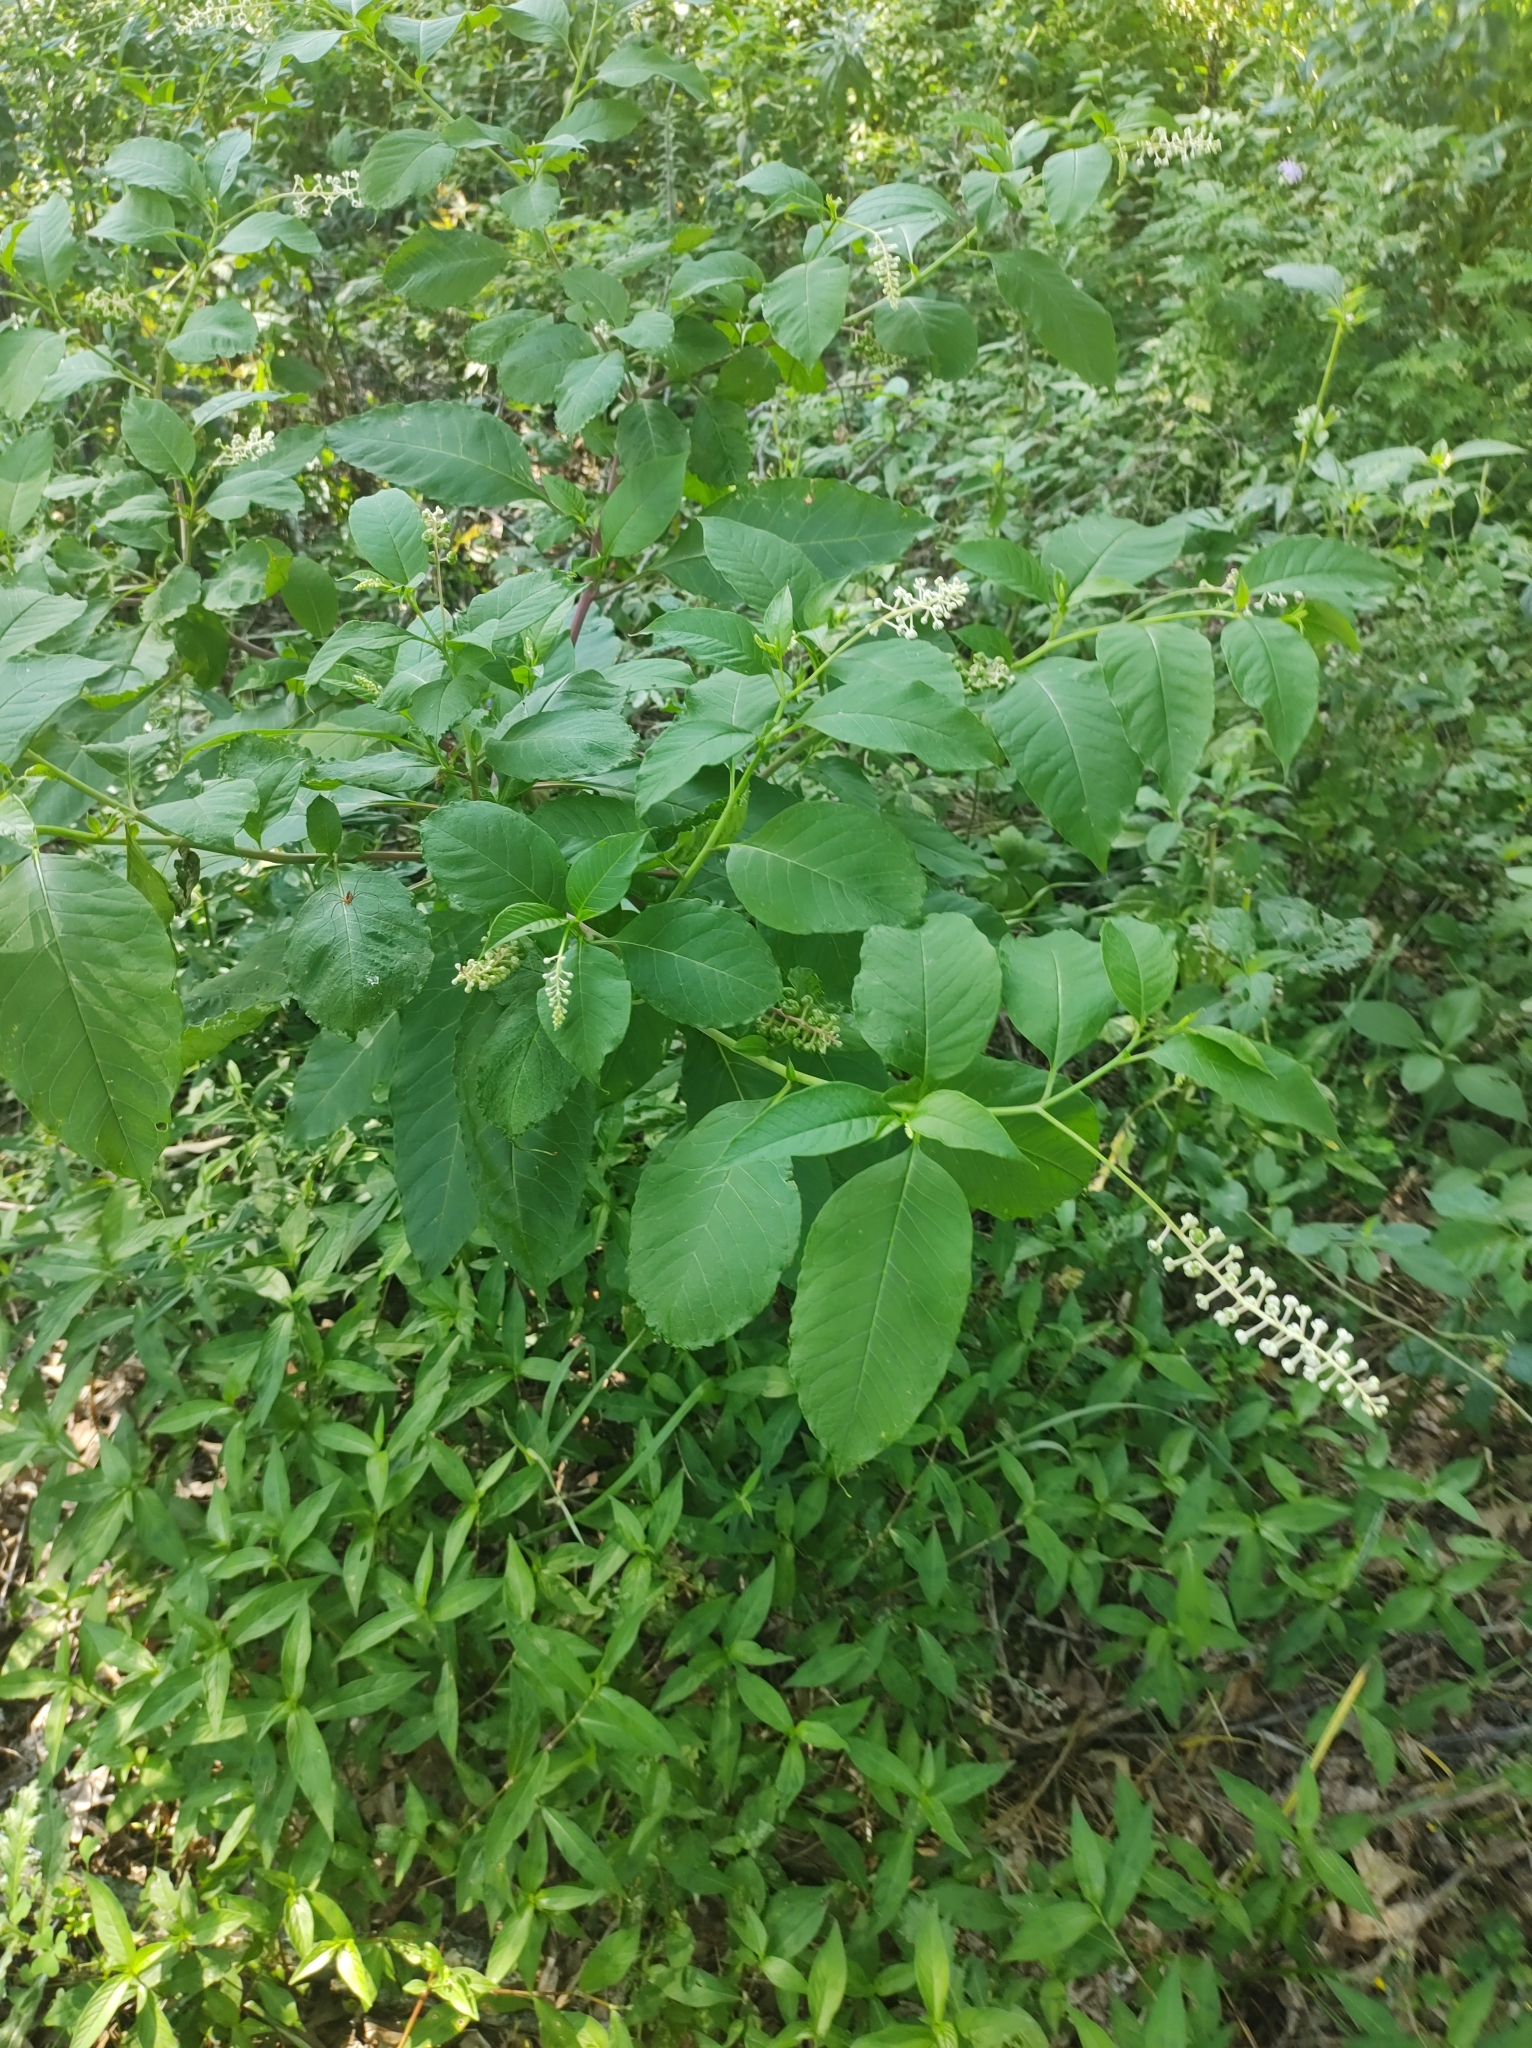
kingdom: Plantae
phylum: Tracheophyta
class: Magnoliopsida
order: Caryophyllales
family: Phytolaccaceae
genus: Phytolacca
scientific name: Phytolacca americana
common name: American pokeweed
